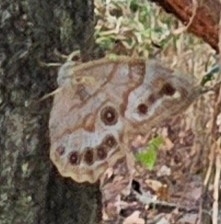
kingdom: Animalia
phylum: Arthropoda
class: Insecta
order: Lepidoptera
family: Nymphalidae
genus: Enodia
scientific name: Enodia portlandia
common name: Southern pearly-eye
